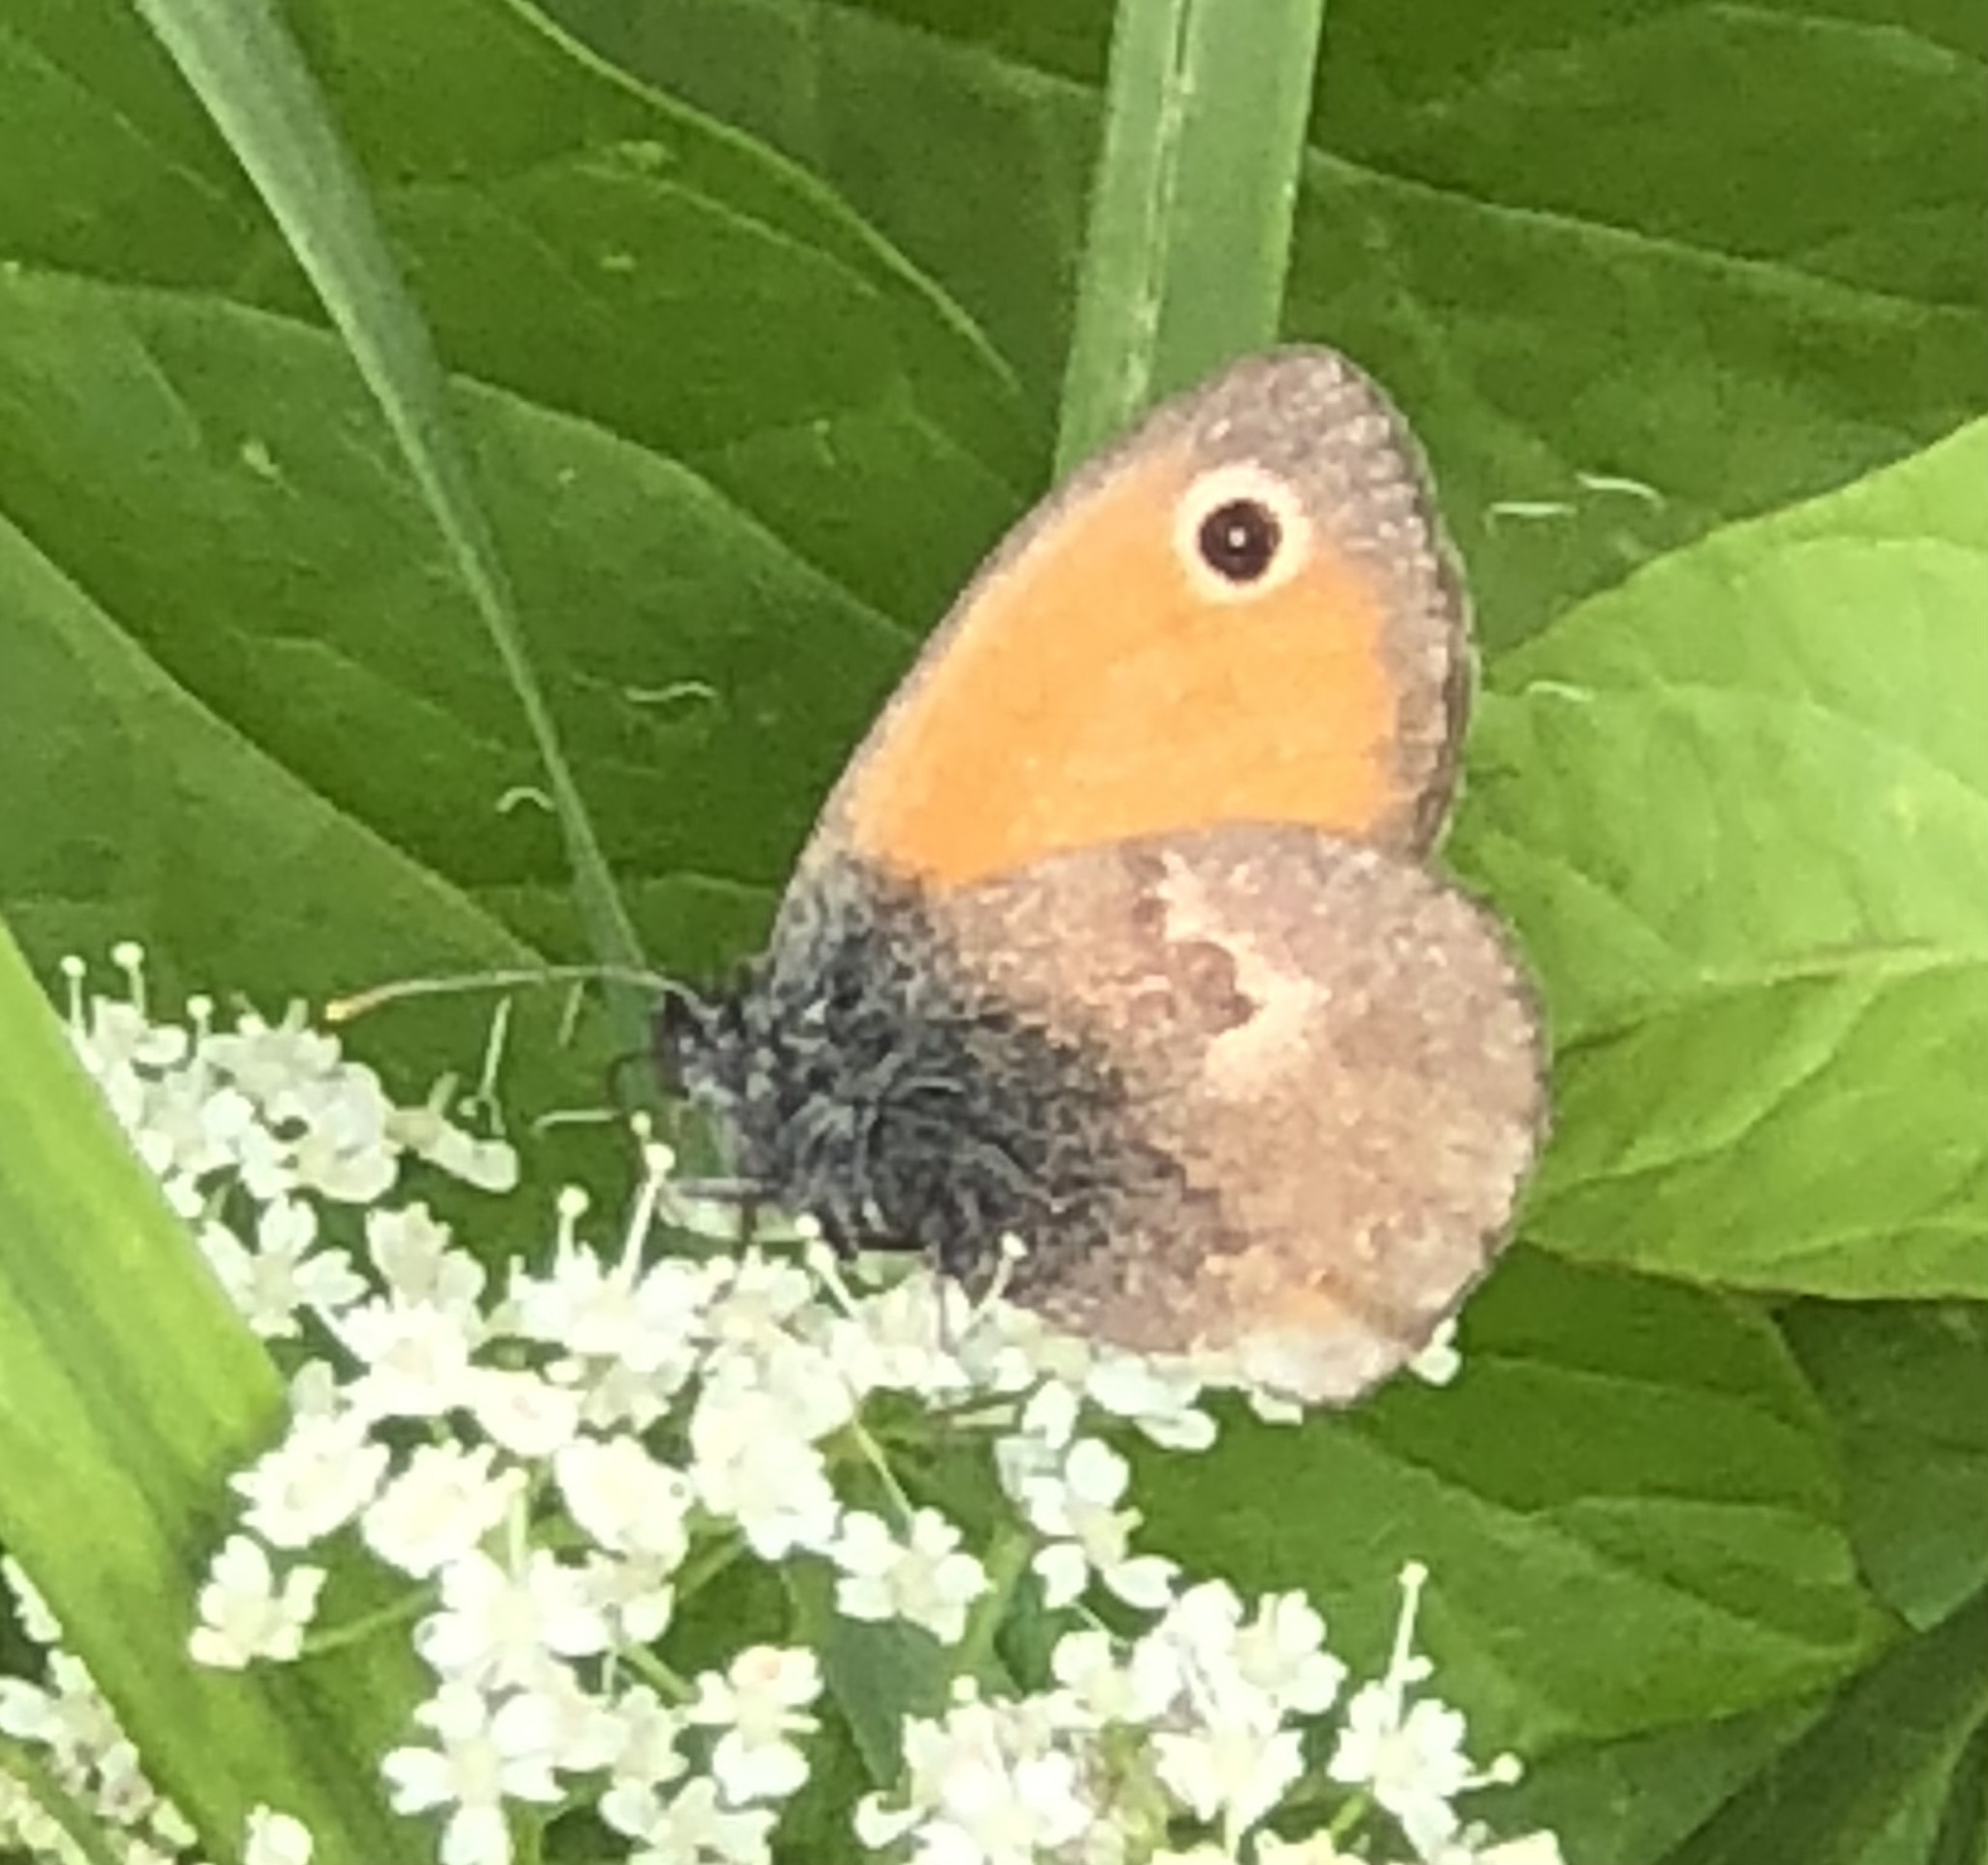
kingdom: Animalia
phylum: Arthropoda
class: Insecta
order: Lepidoptera
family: Nymphalidae
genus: Coenonympha
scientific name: Coenonympha pamphilus
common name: Small heath
